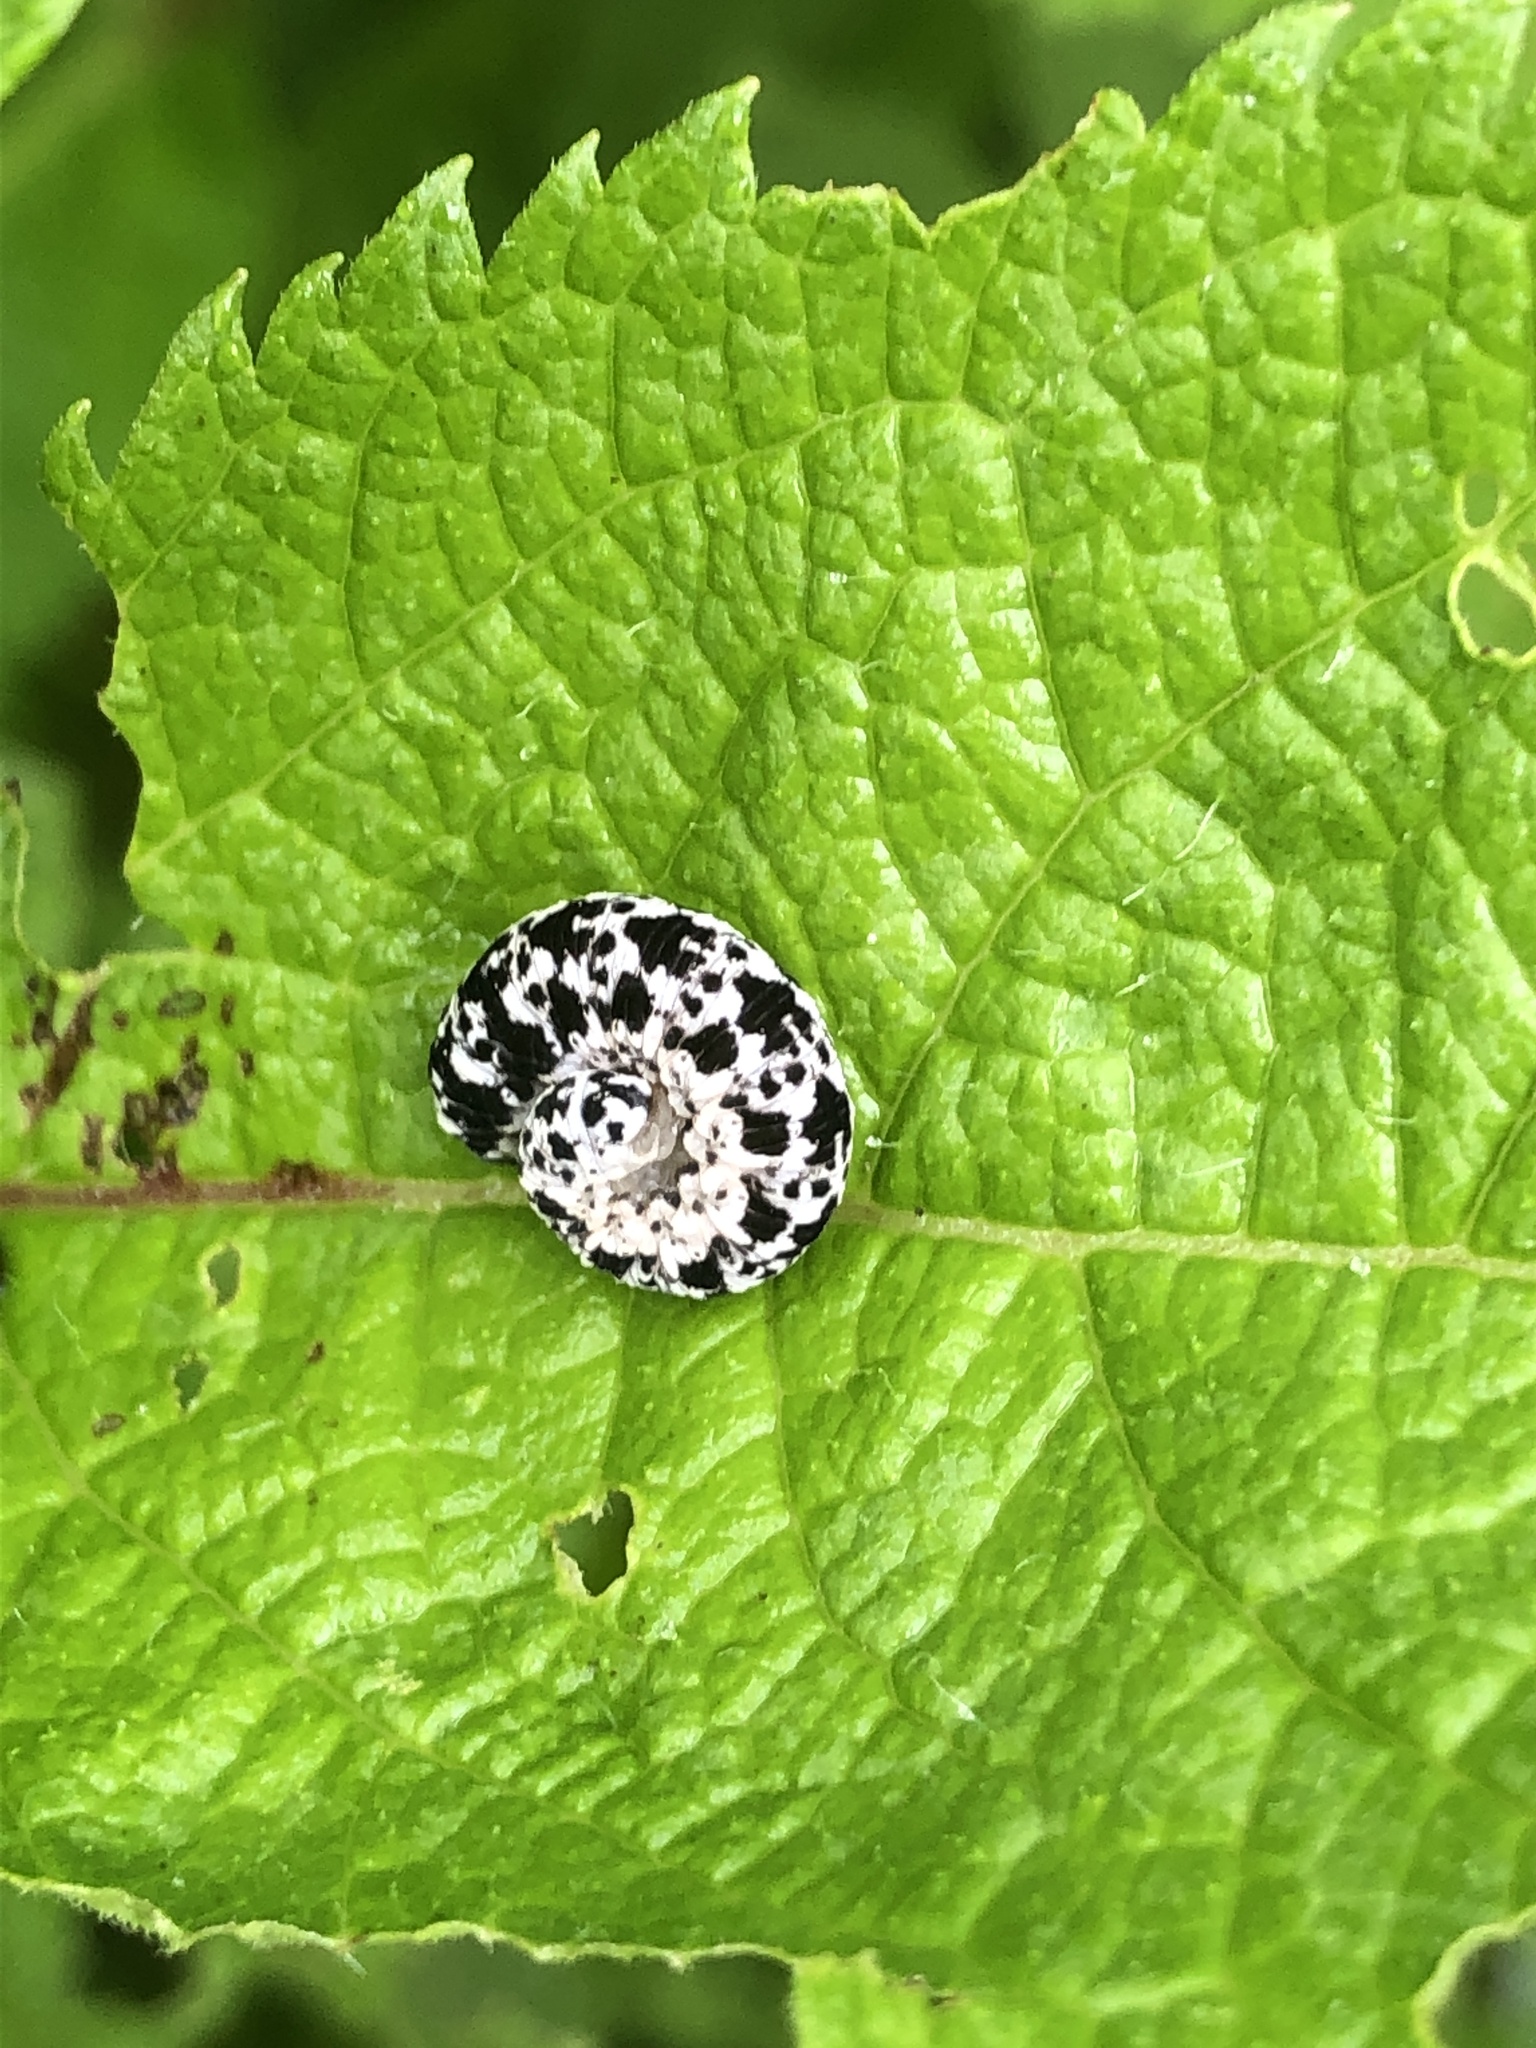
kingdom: Animalia
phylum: Arthropoda
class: Insecta
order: Hymenoptera
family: Tenthredinidae
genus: Tenthredo
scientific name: Tenthredo
